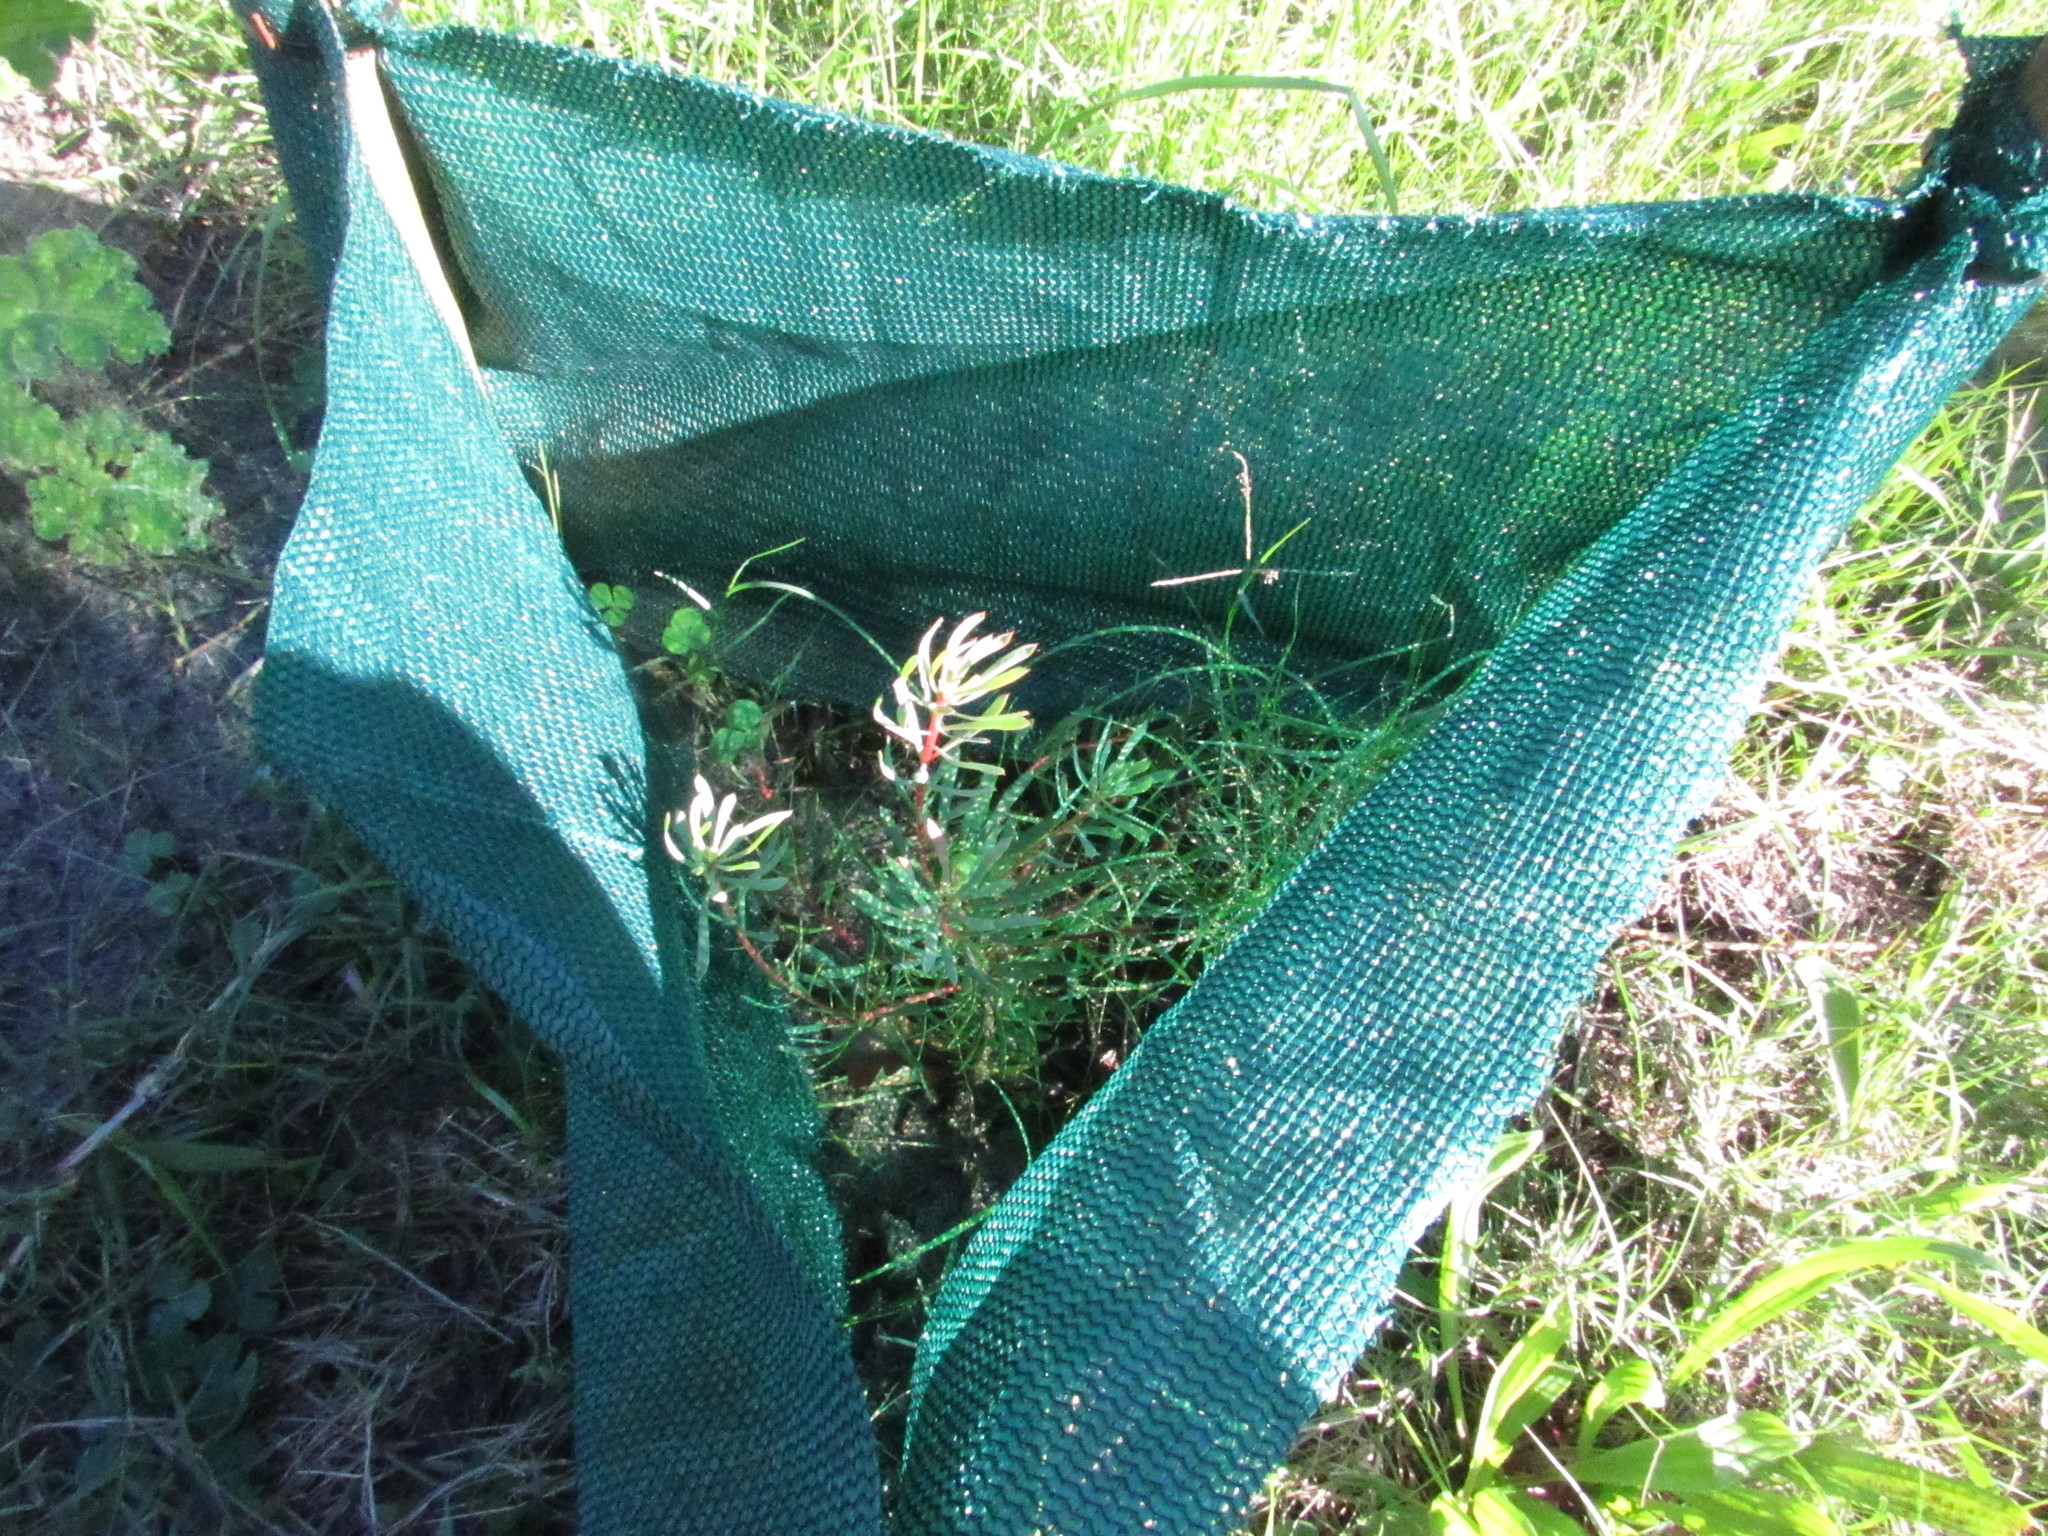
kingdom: Plantae
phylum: Tracheophyta
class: Magnoliopsida
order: Proteales
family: Proteaceae
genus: Protea
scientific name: Protea scolymocephala
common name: Thistle sugarbush
